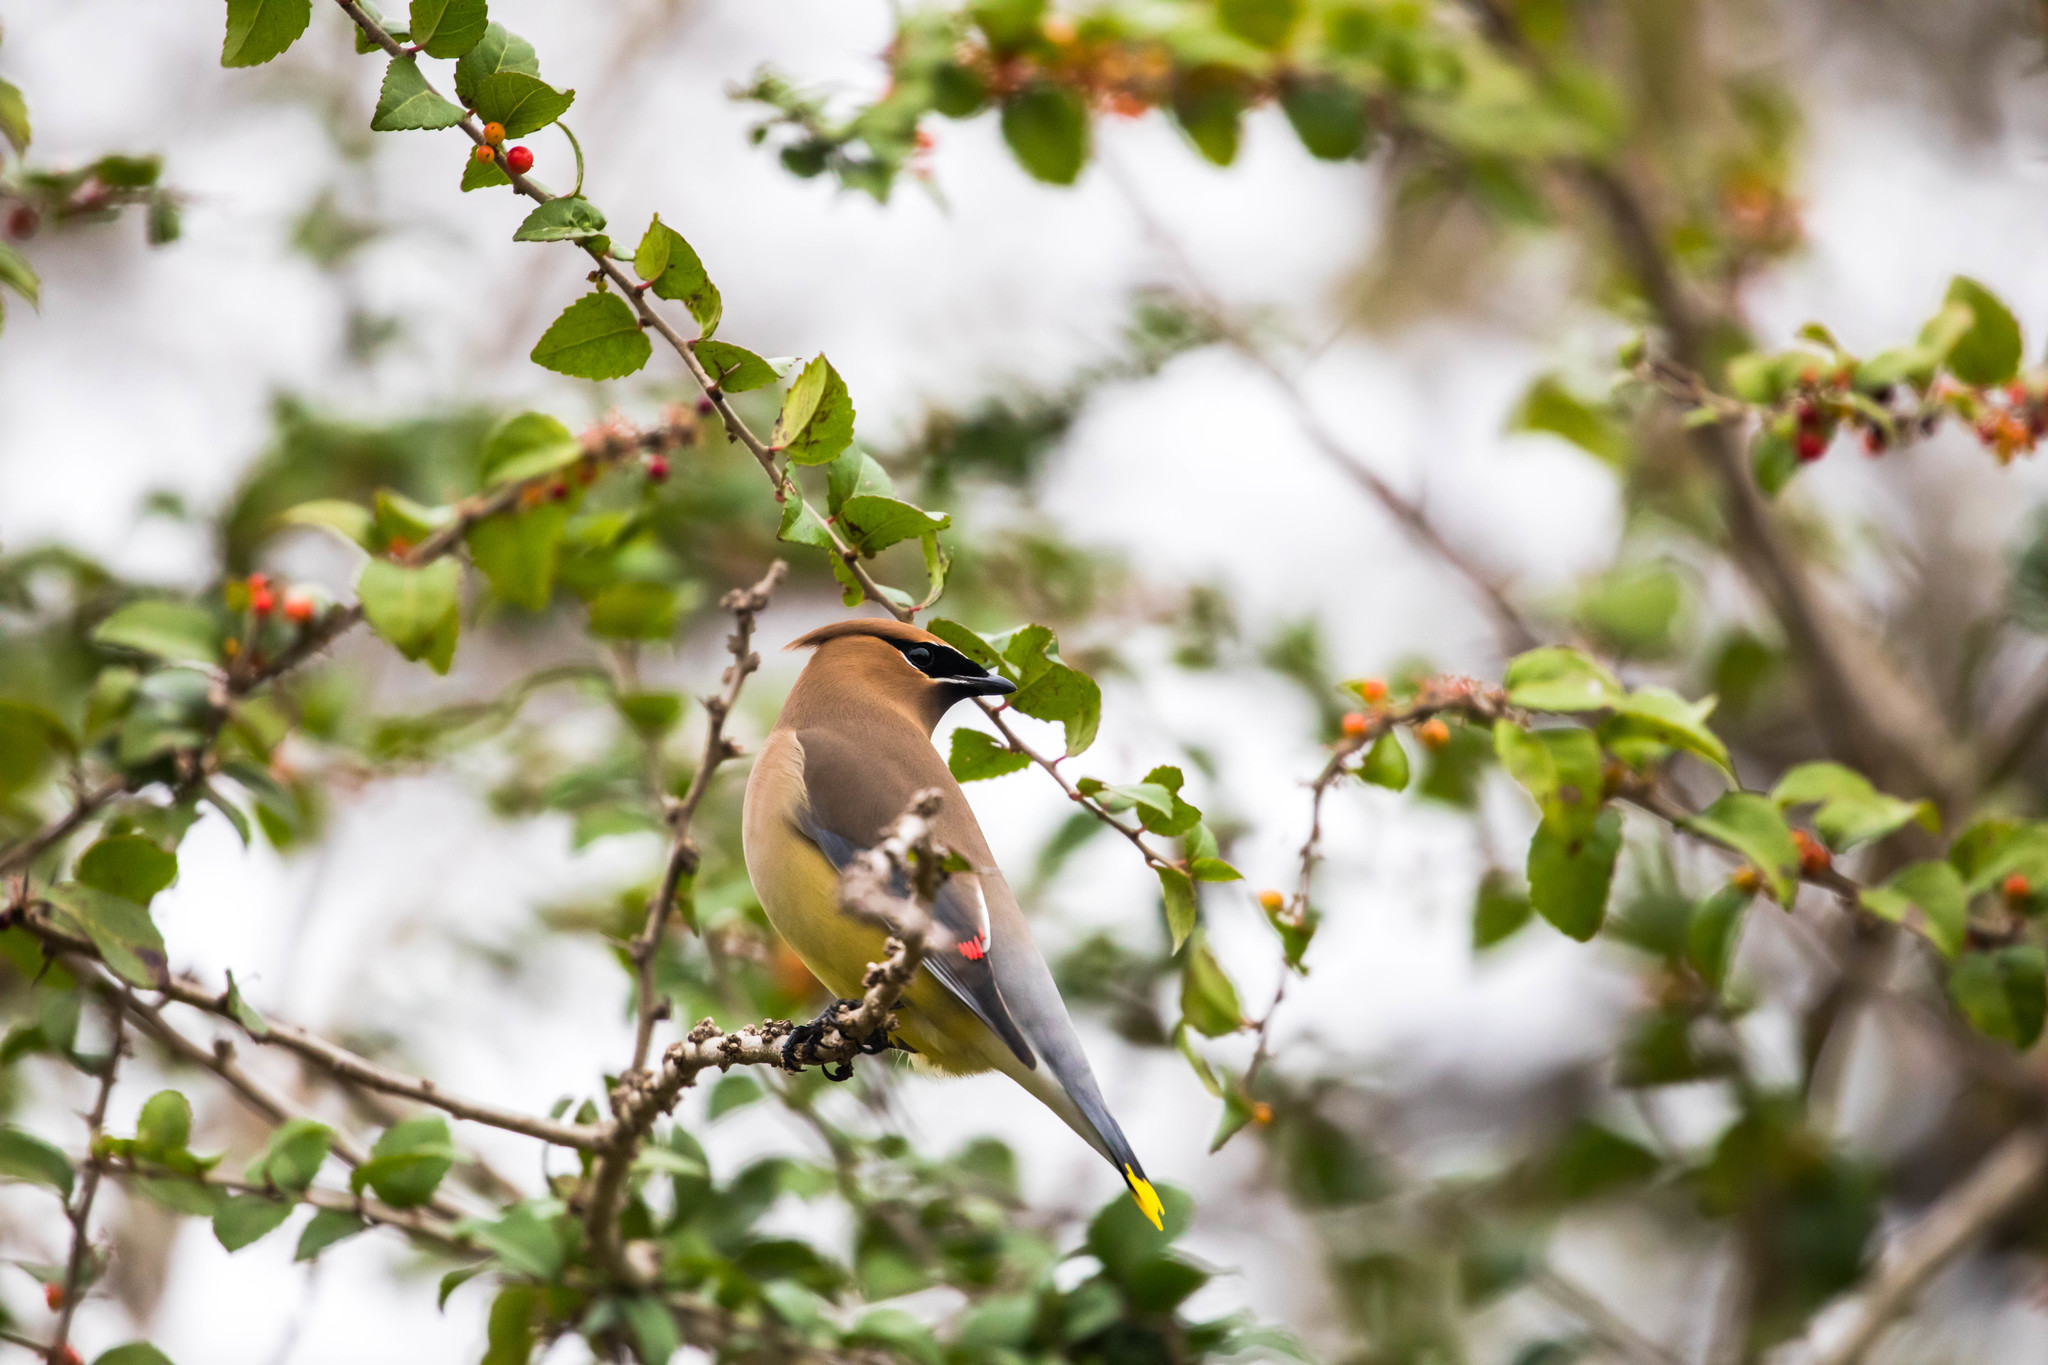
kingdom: Animalia
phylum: Chordata
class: Aves
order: Passeriformes
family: Bombycillidae
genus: Bombycilla
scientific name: Bombycilla cedrorum
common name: Cedar waxwing
